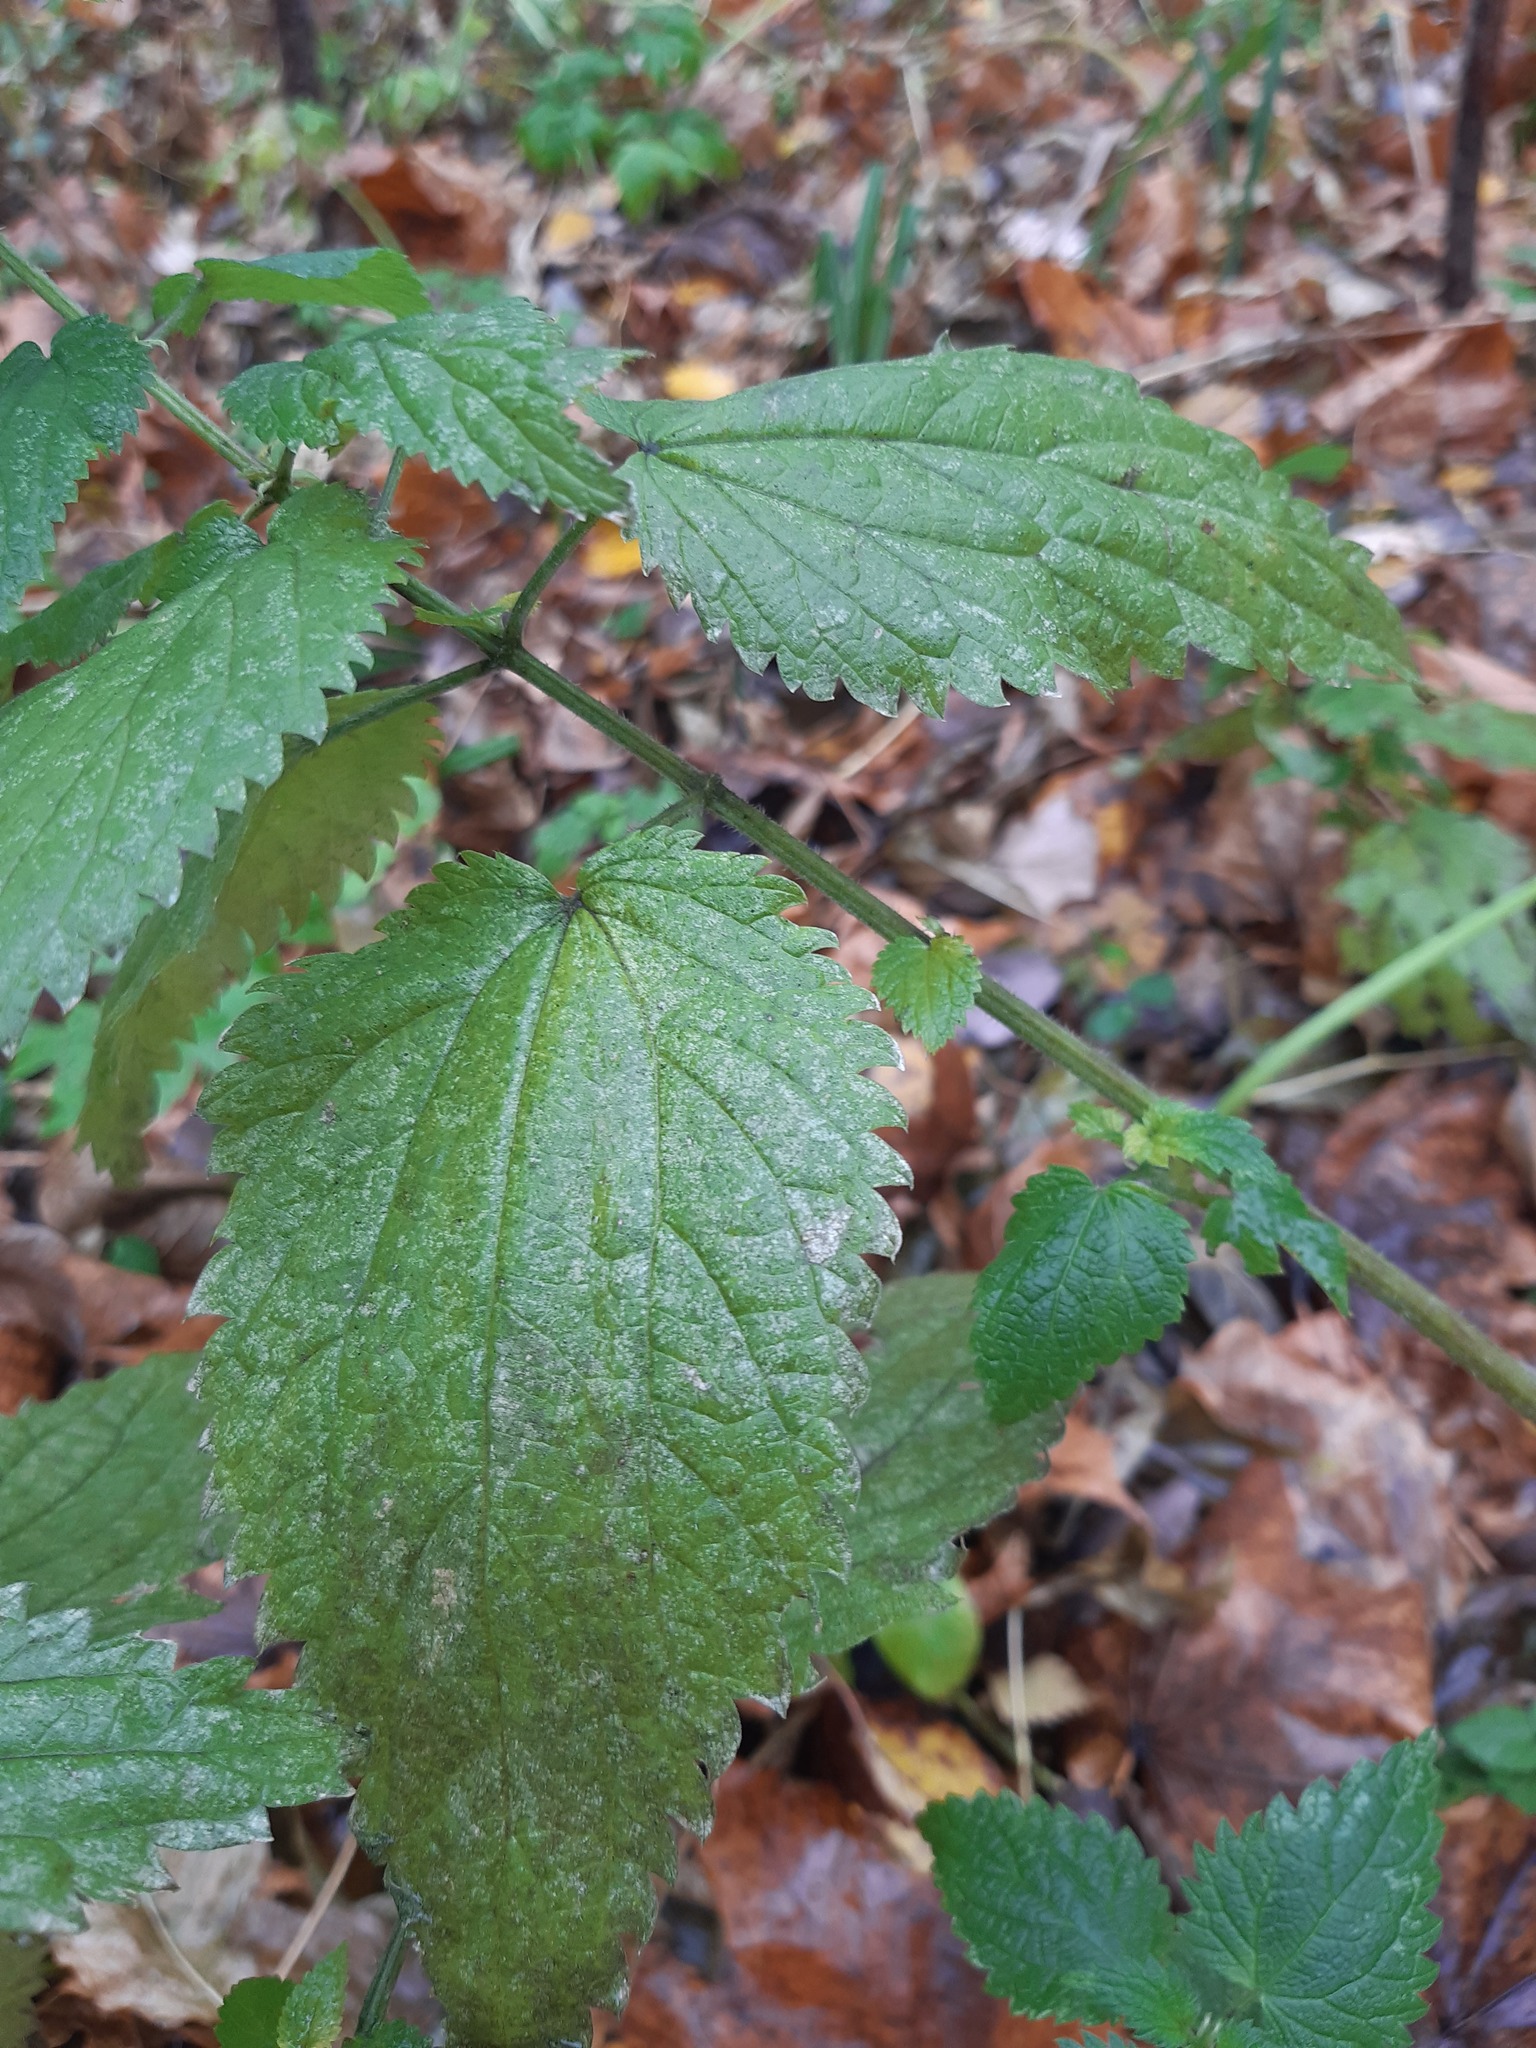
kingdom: Plantae
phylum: Tracheophyta
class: Magnoliopsida
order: Rosales
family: Urticaceae
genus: Urtica
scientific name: Urtica dioica
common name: Common nettle
